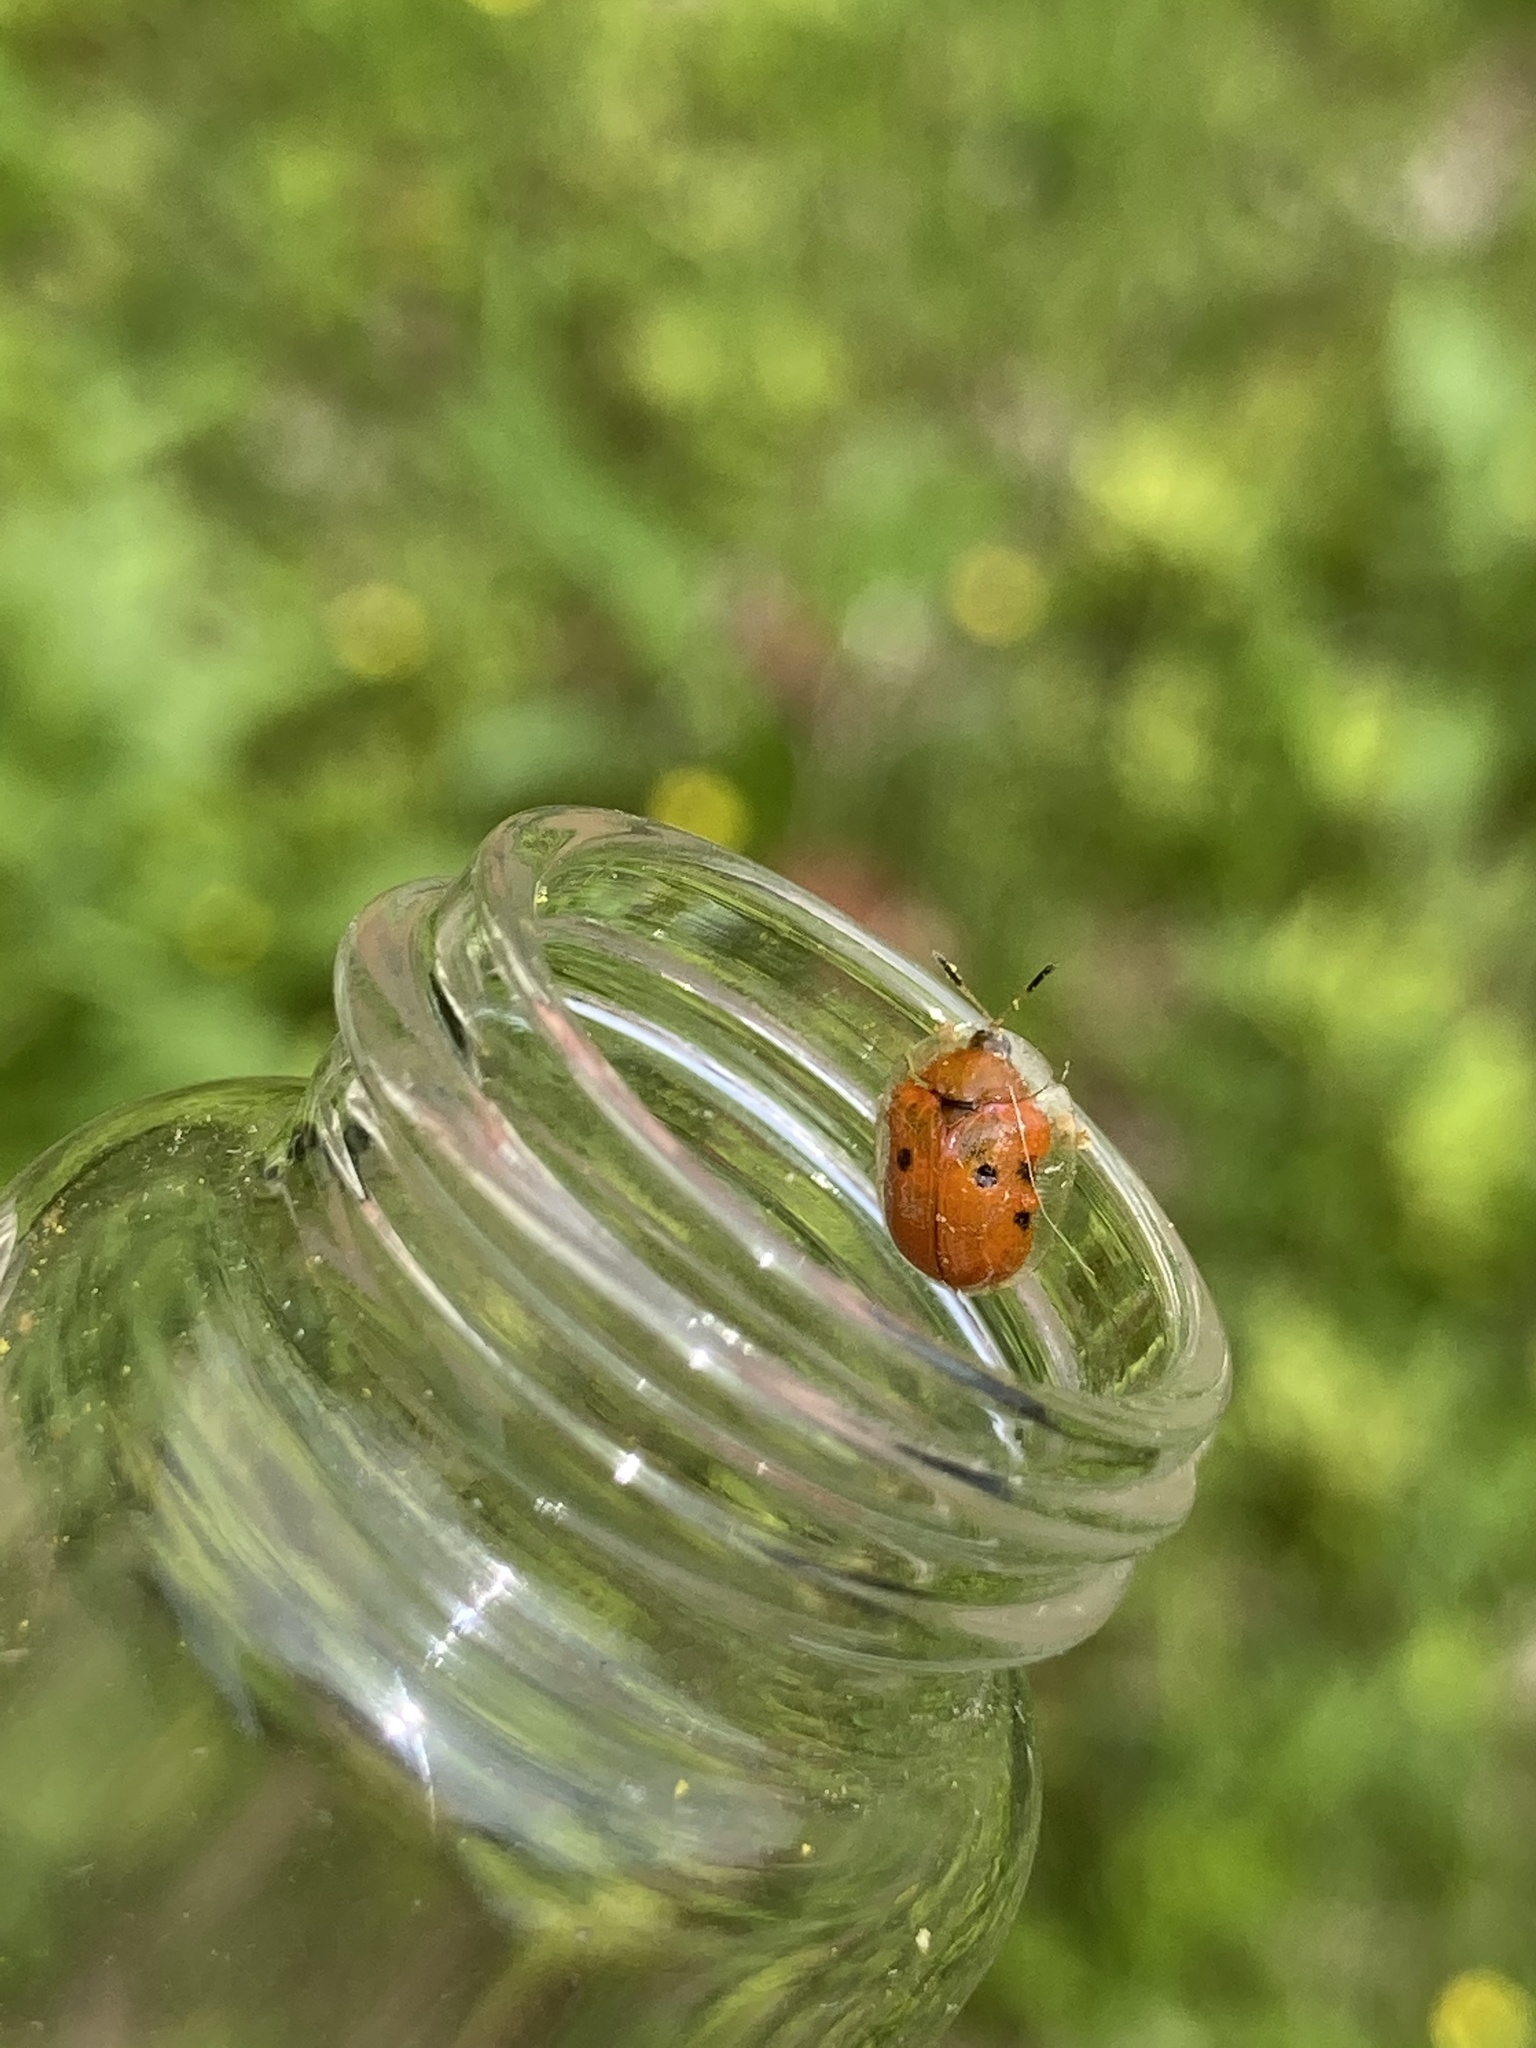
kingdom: Animalia
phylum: Arthropoda
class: Insecta
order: Coleoptera
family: Chrysomelidae
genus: Charidotella
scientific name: Charidotella sexpunctata
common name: Golden tortoise beetle
